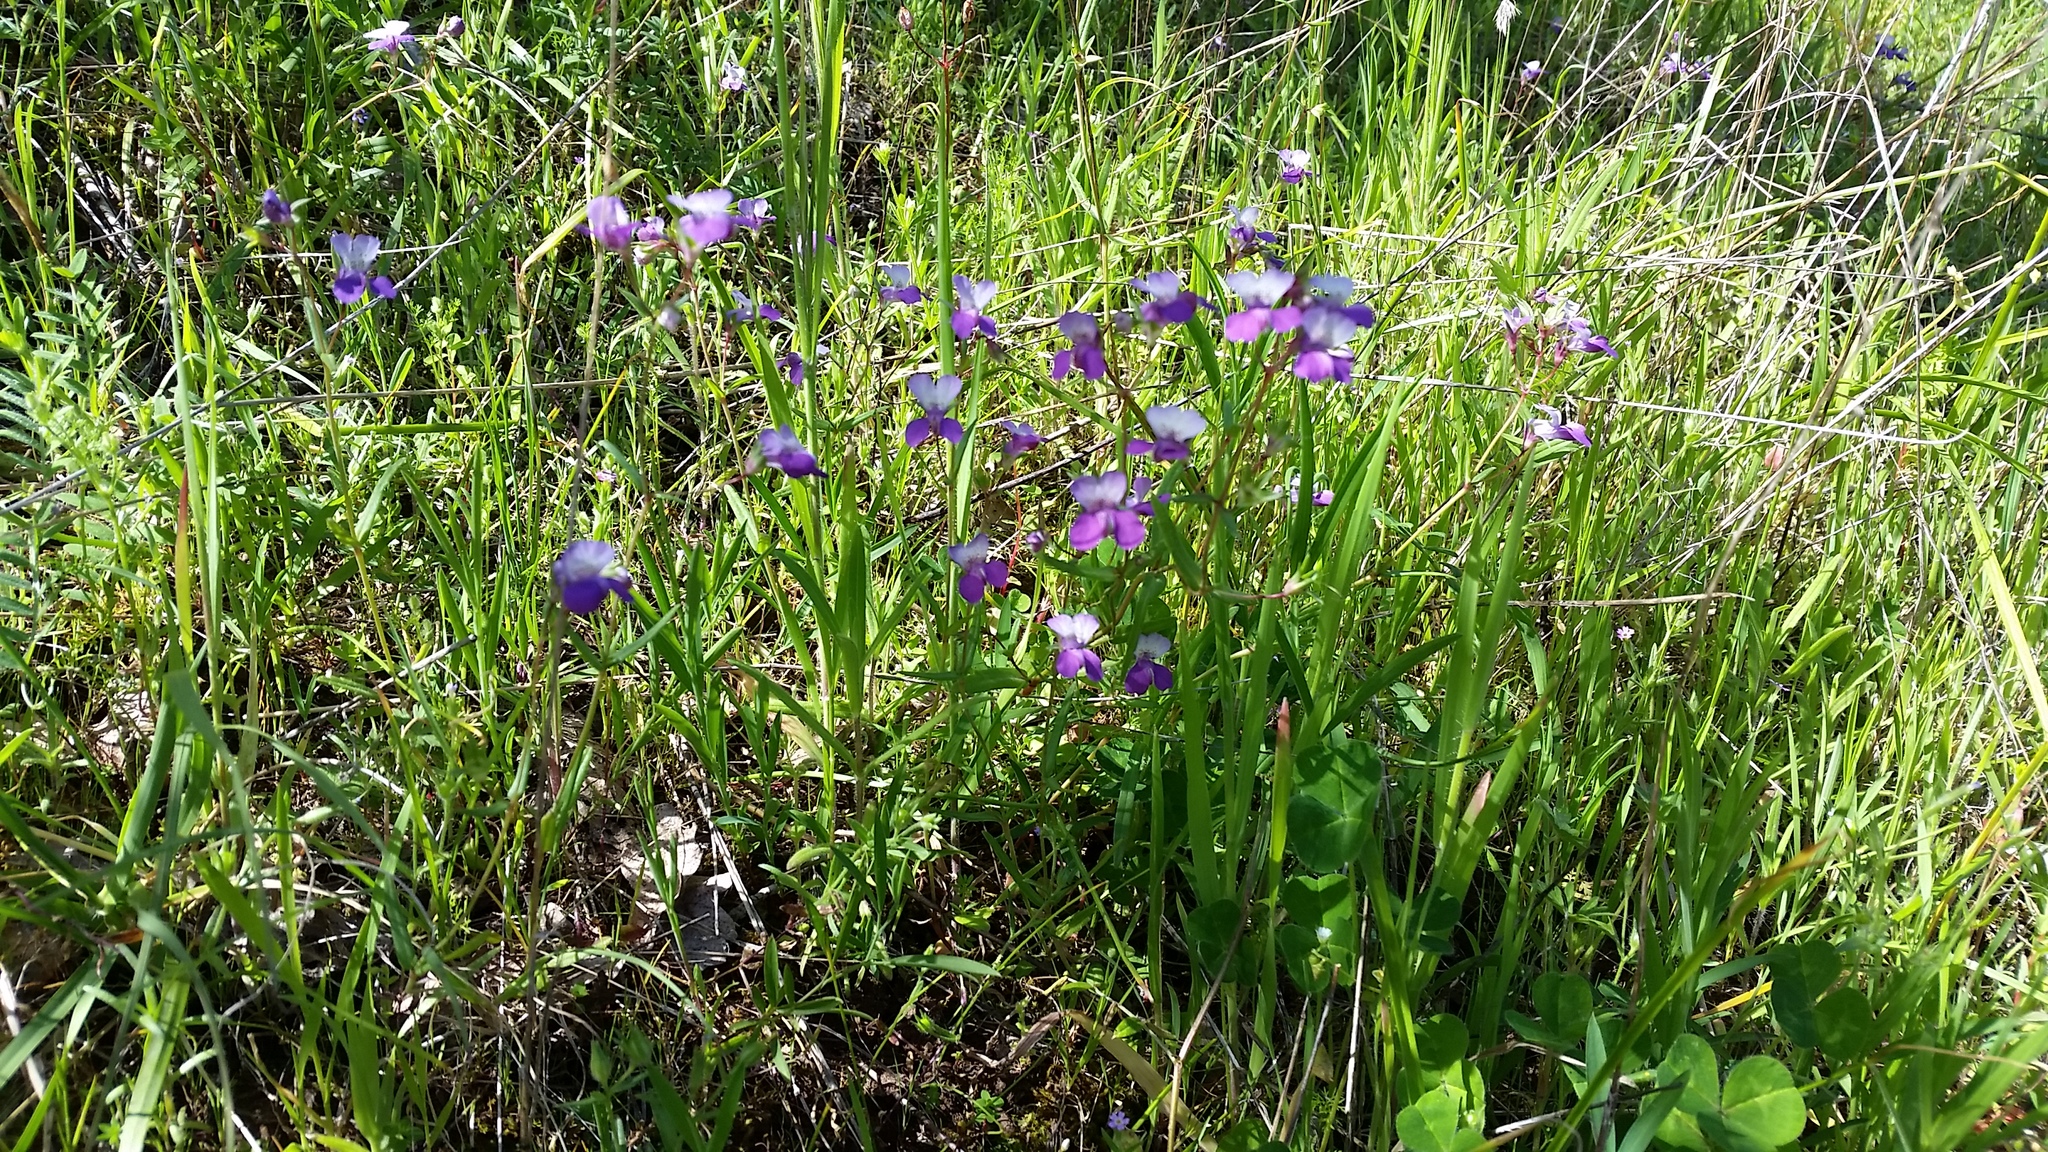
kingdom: Plantae
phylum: Tracheophyta
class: Magnoliopsida
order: Lamiales
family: Plantaginaceae
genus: Collinsia
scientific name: Collinsia sparsiflora
